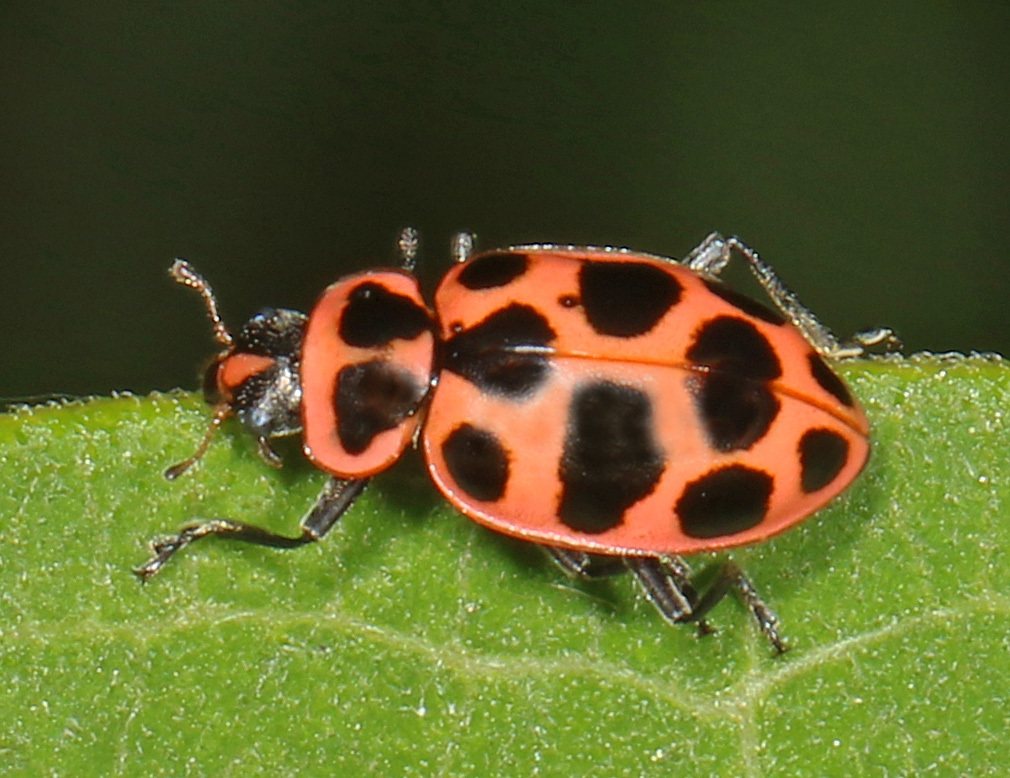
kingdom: Animalia
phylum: Arthropoda
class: Insecta
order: Coleoptera
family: Coccinellidae
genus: Coleomegilla
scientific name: Coleomegilla maculata
